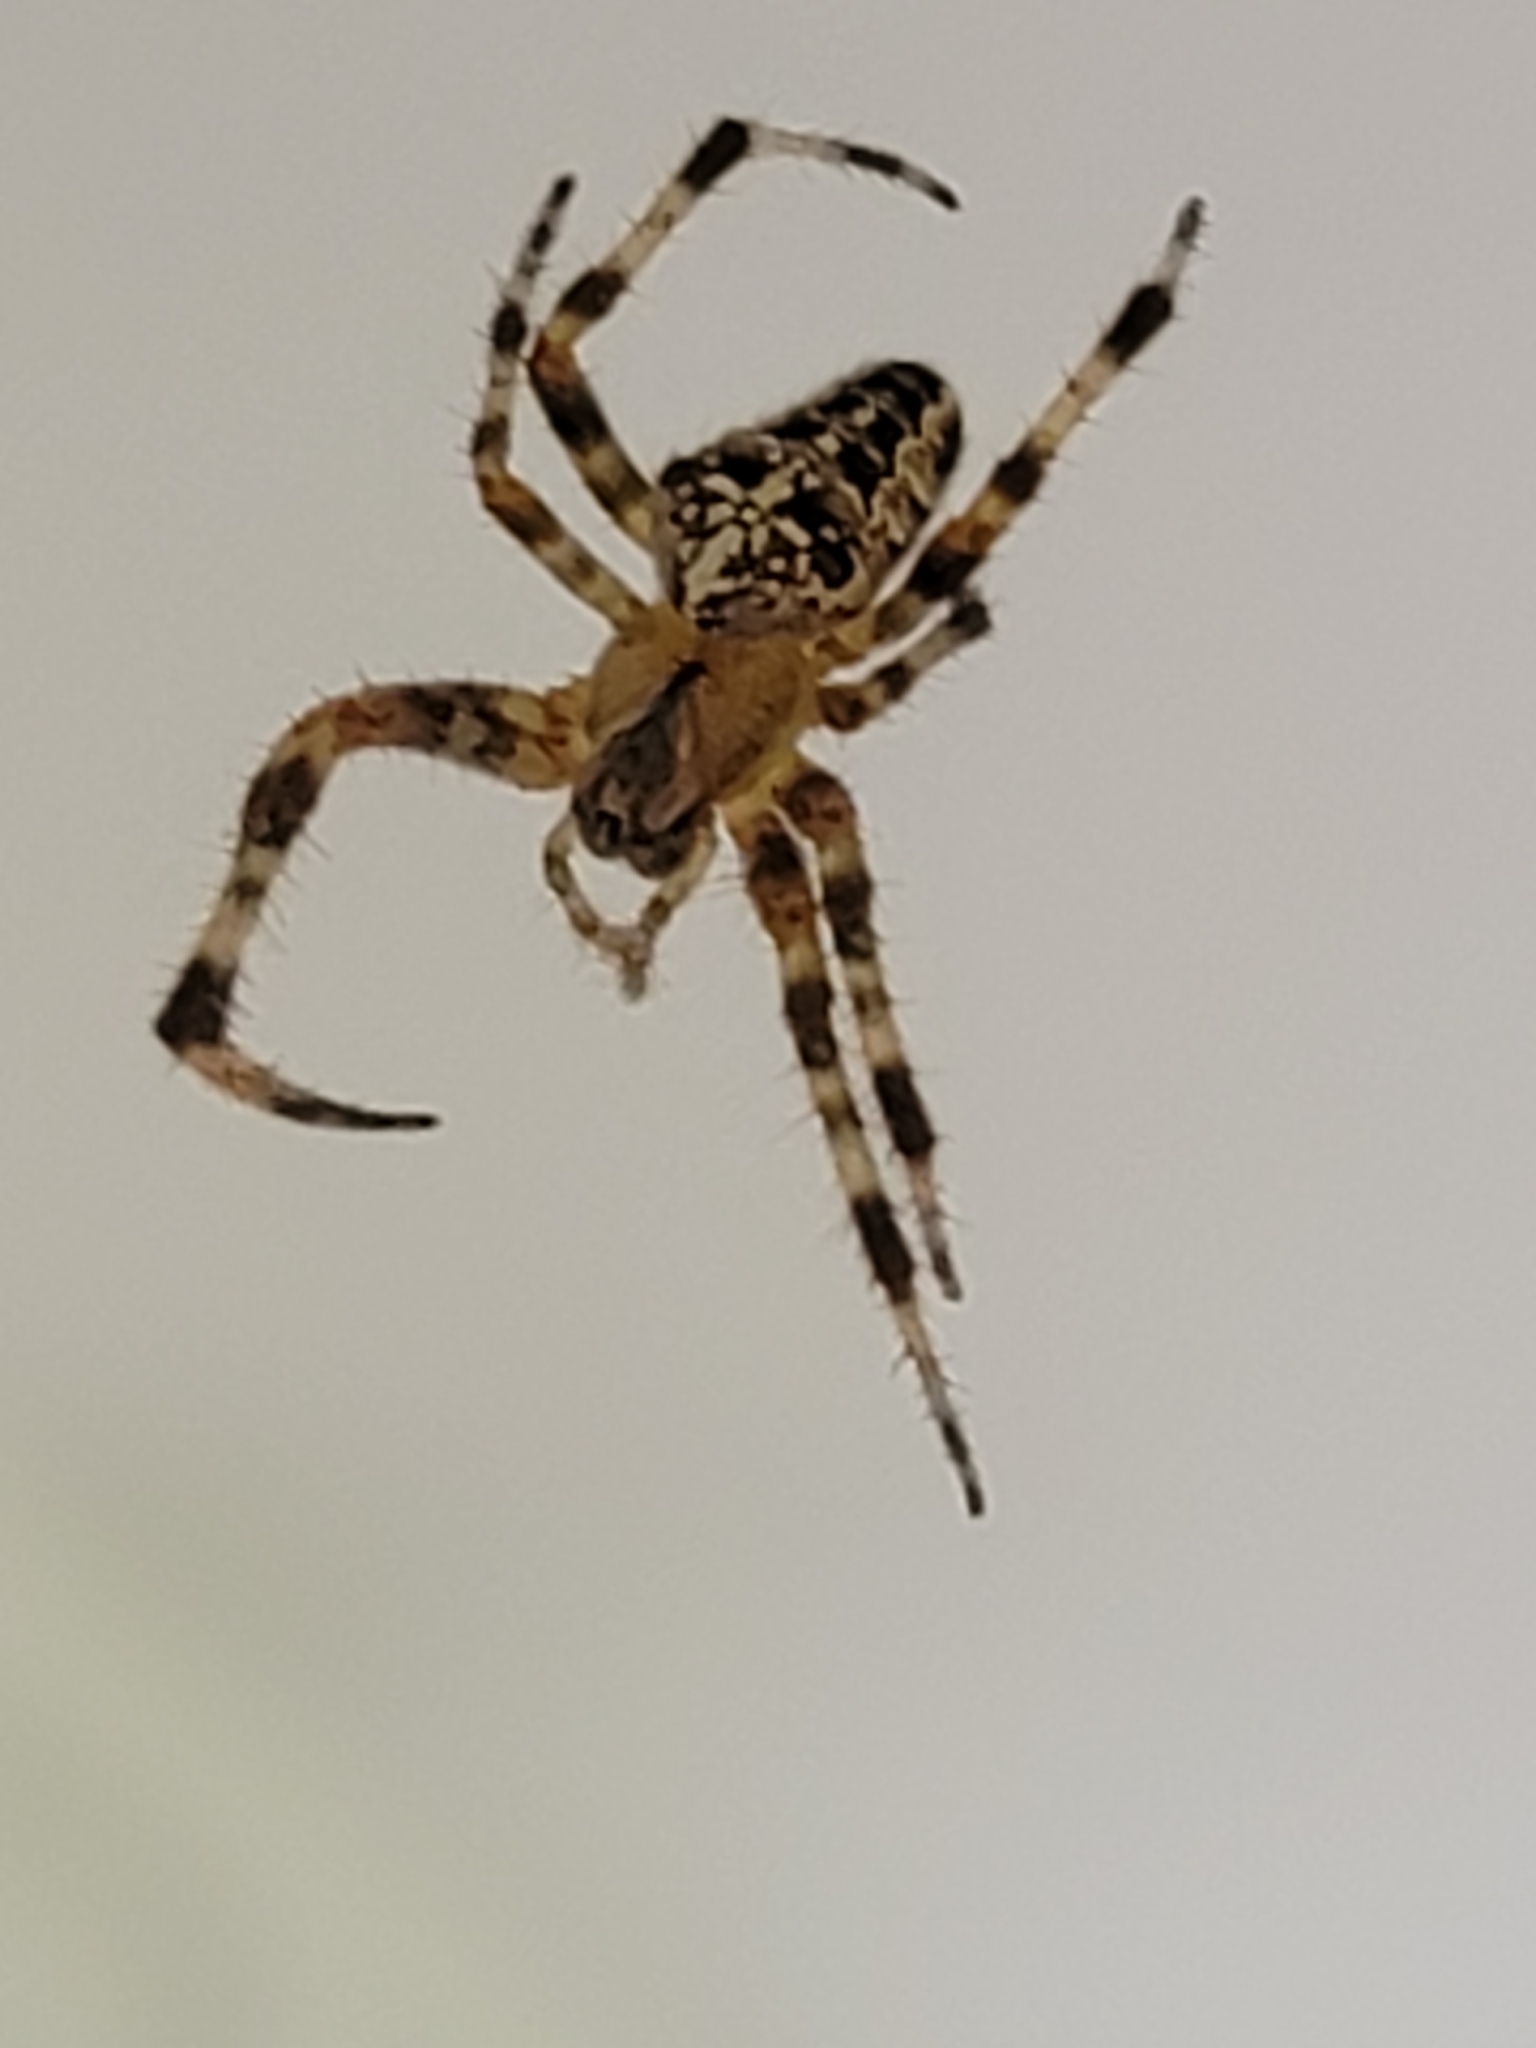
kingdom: Animalia
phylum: Arthropoda
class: Arachnida
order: Araneae
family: Araneidae
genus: Araneus
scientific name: Araneus diadematus
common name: Cross orbweaver
